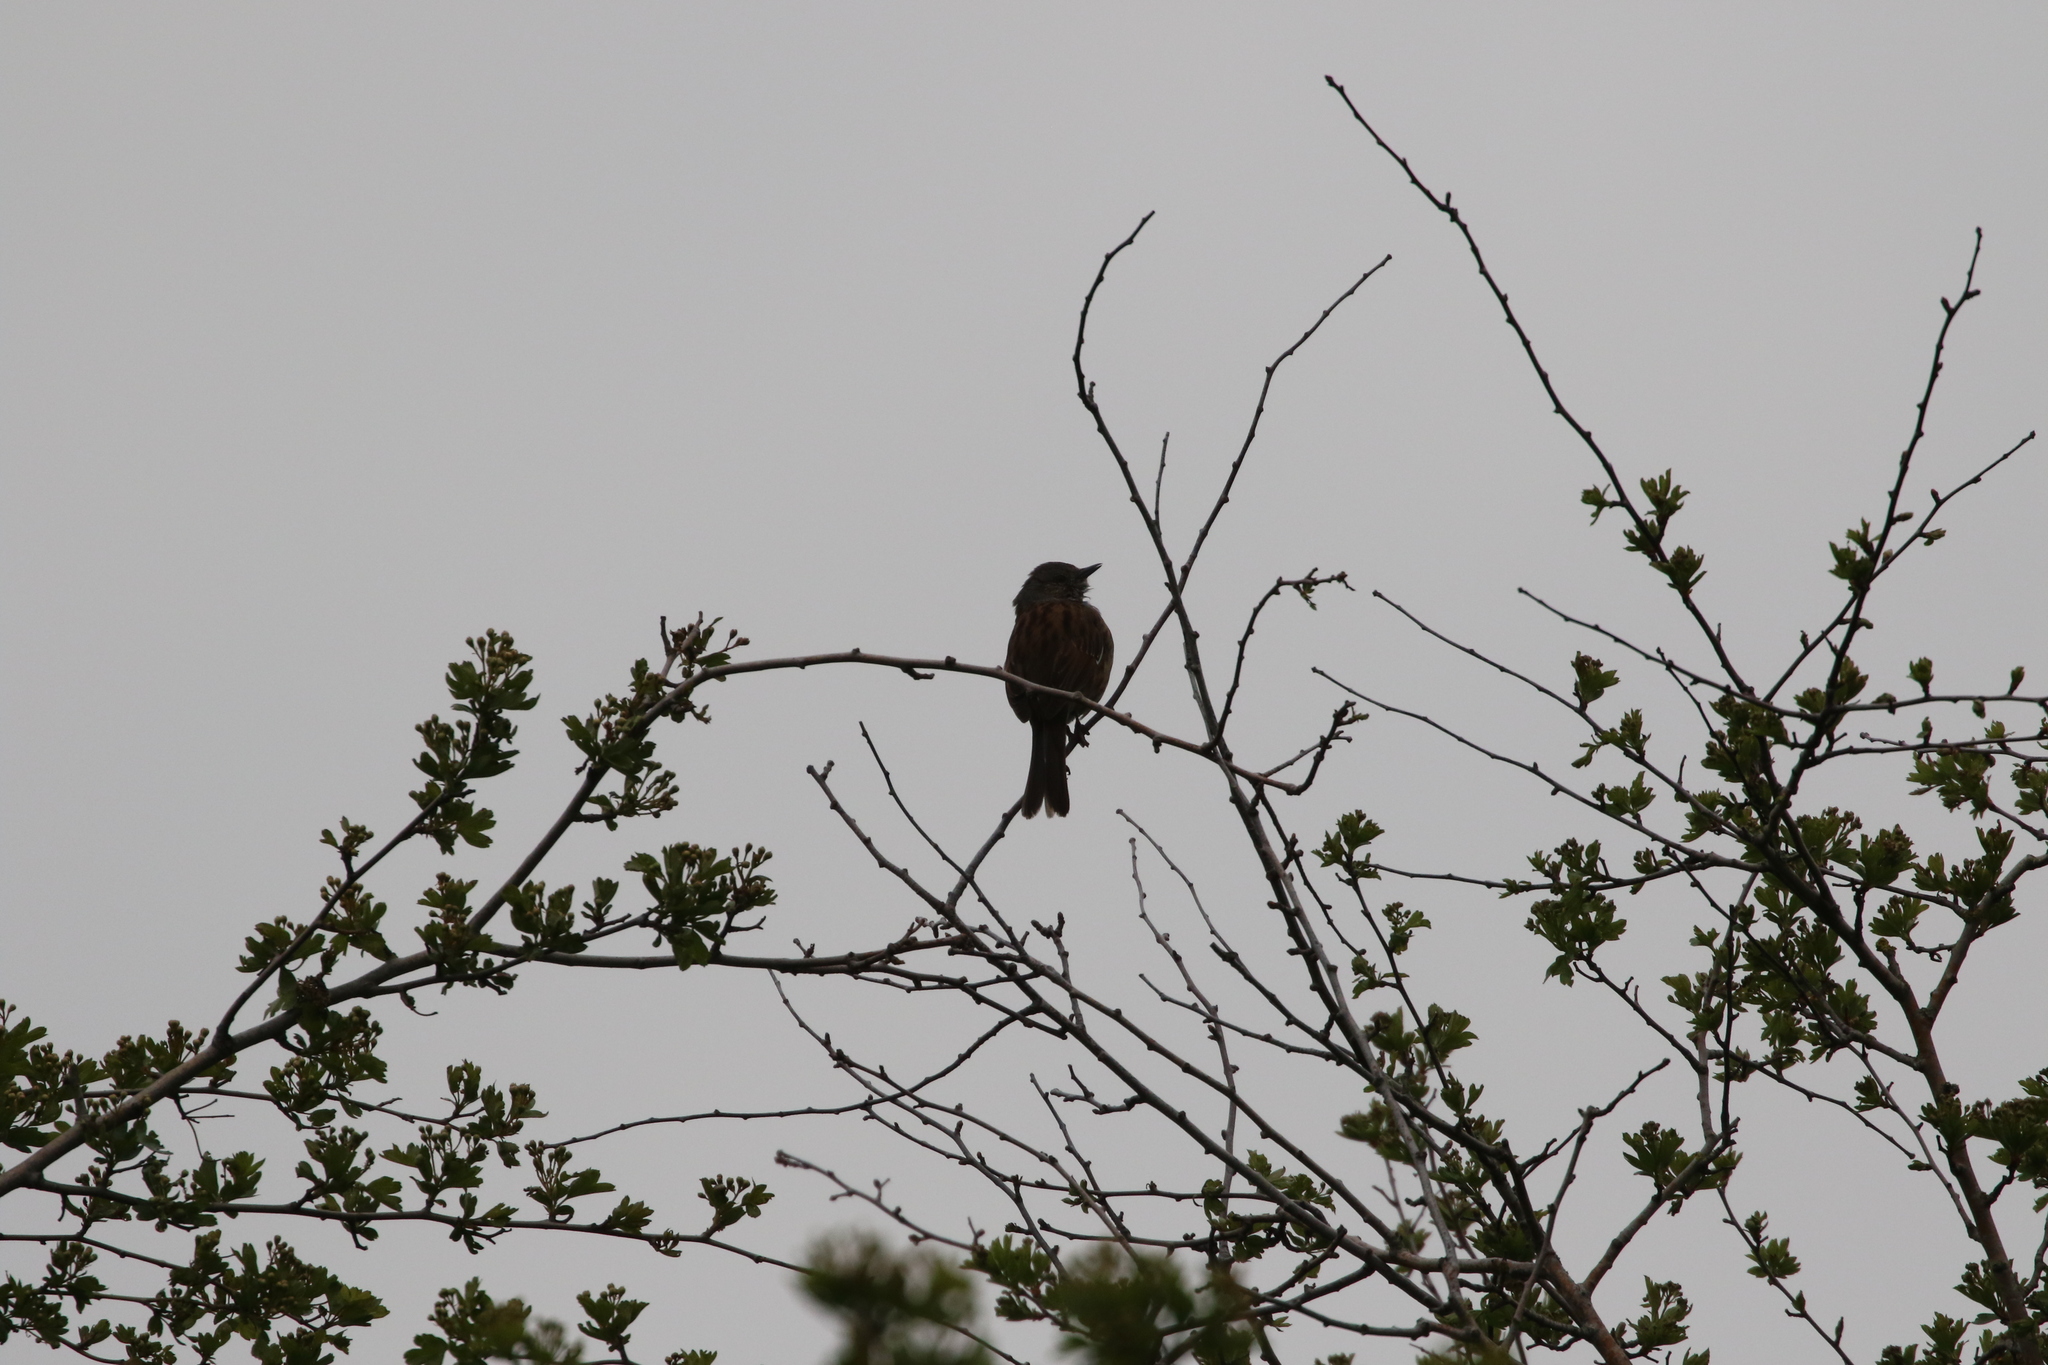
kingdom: Animalia
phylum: Chordata
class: Aves
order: Passeriformes
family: Prunellidae
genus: Prunella
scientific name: Prunella modularis
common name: Dunnock
